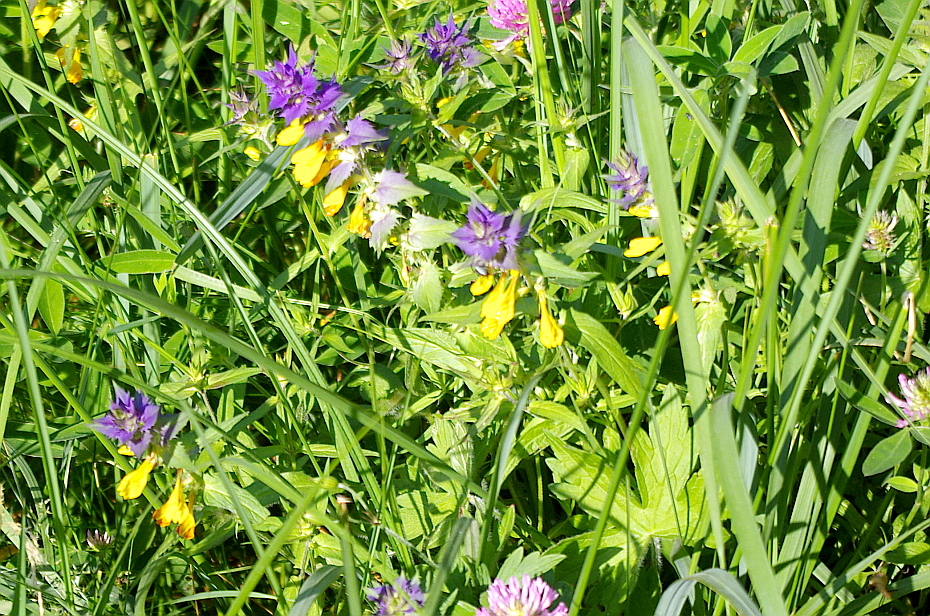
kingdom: Plantae
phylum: Tracheophyta
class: Magnoliopsida
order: Lamiales
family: Orobanchaceae
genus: Melampyrum
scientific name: Melampyrum nemorosum
